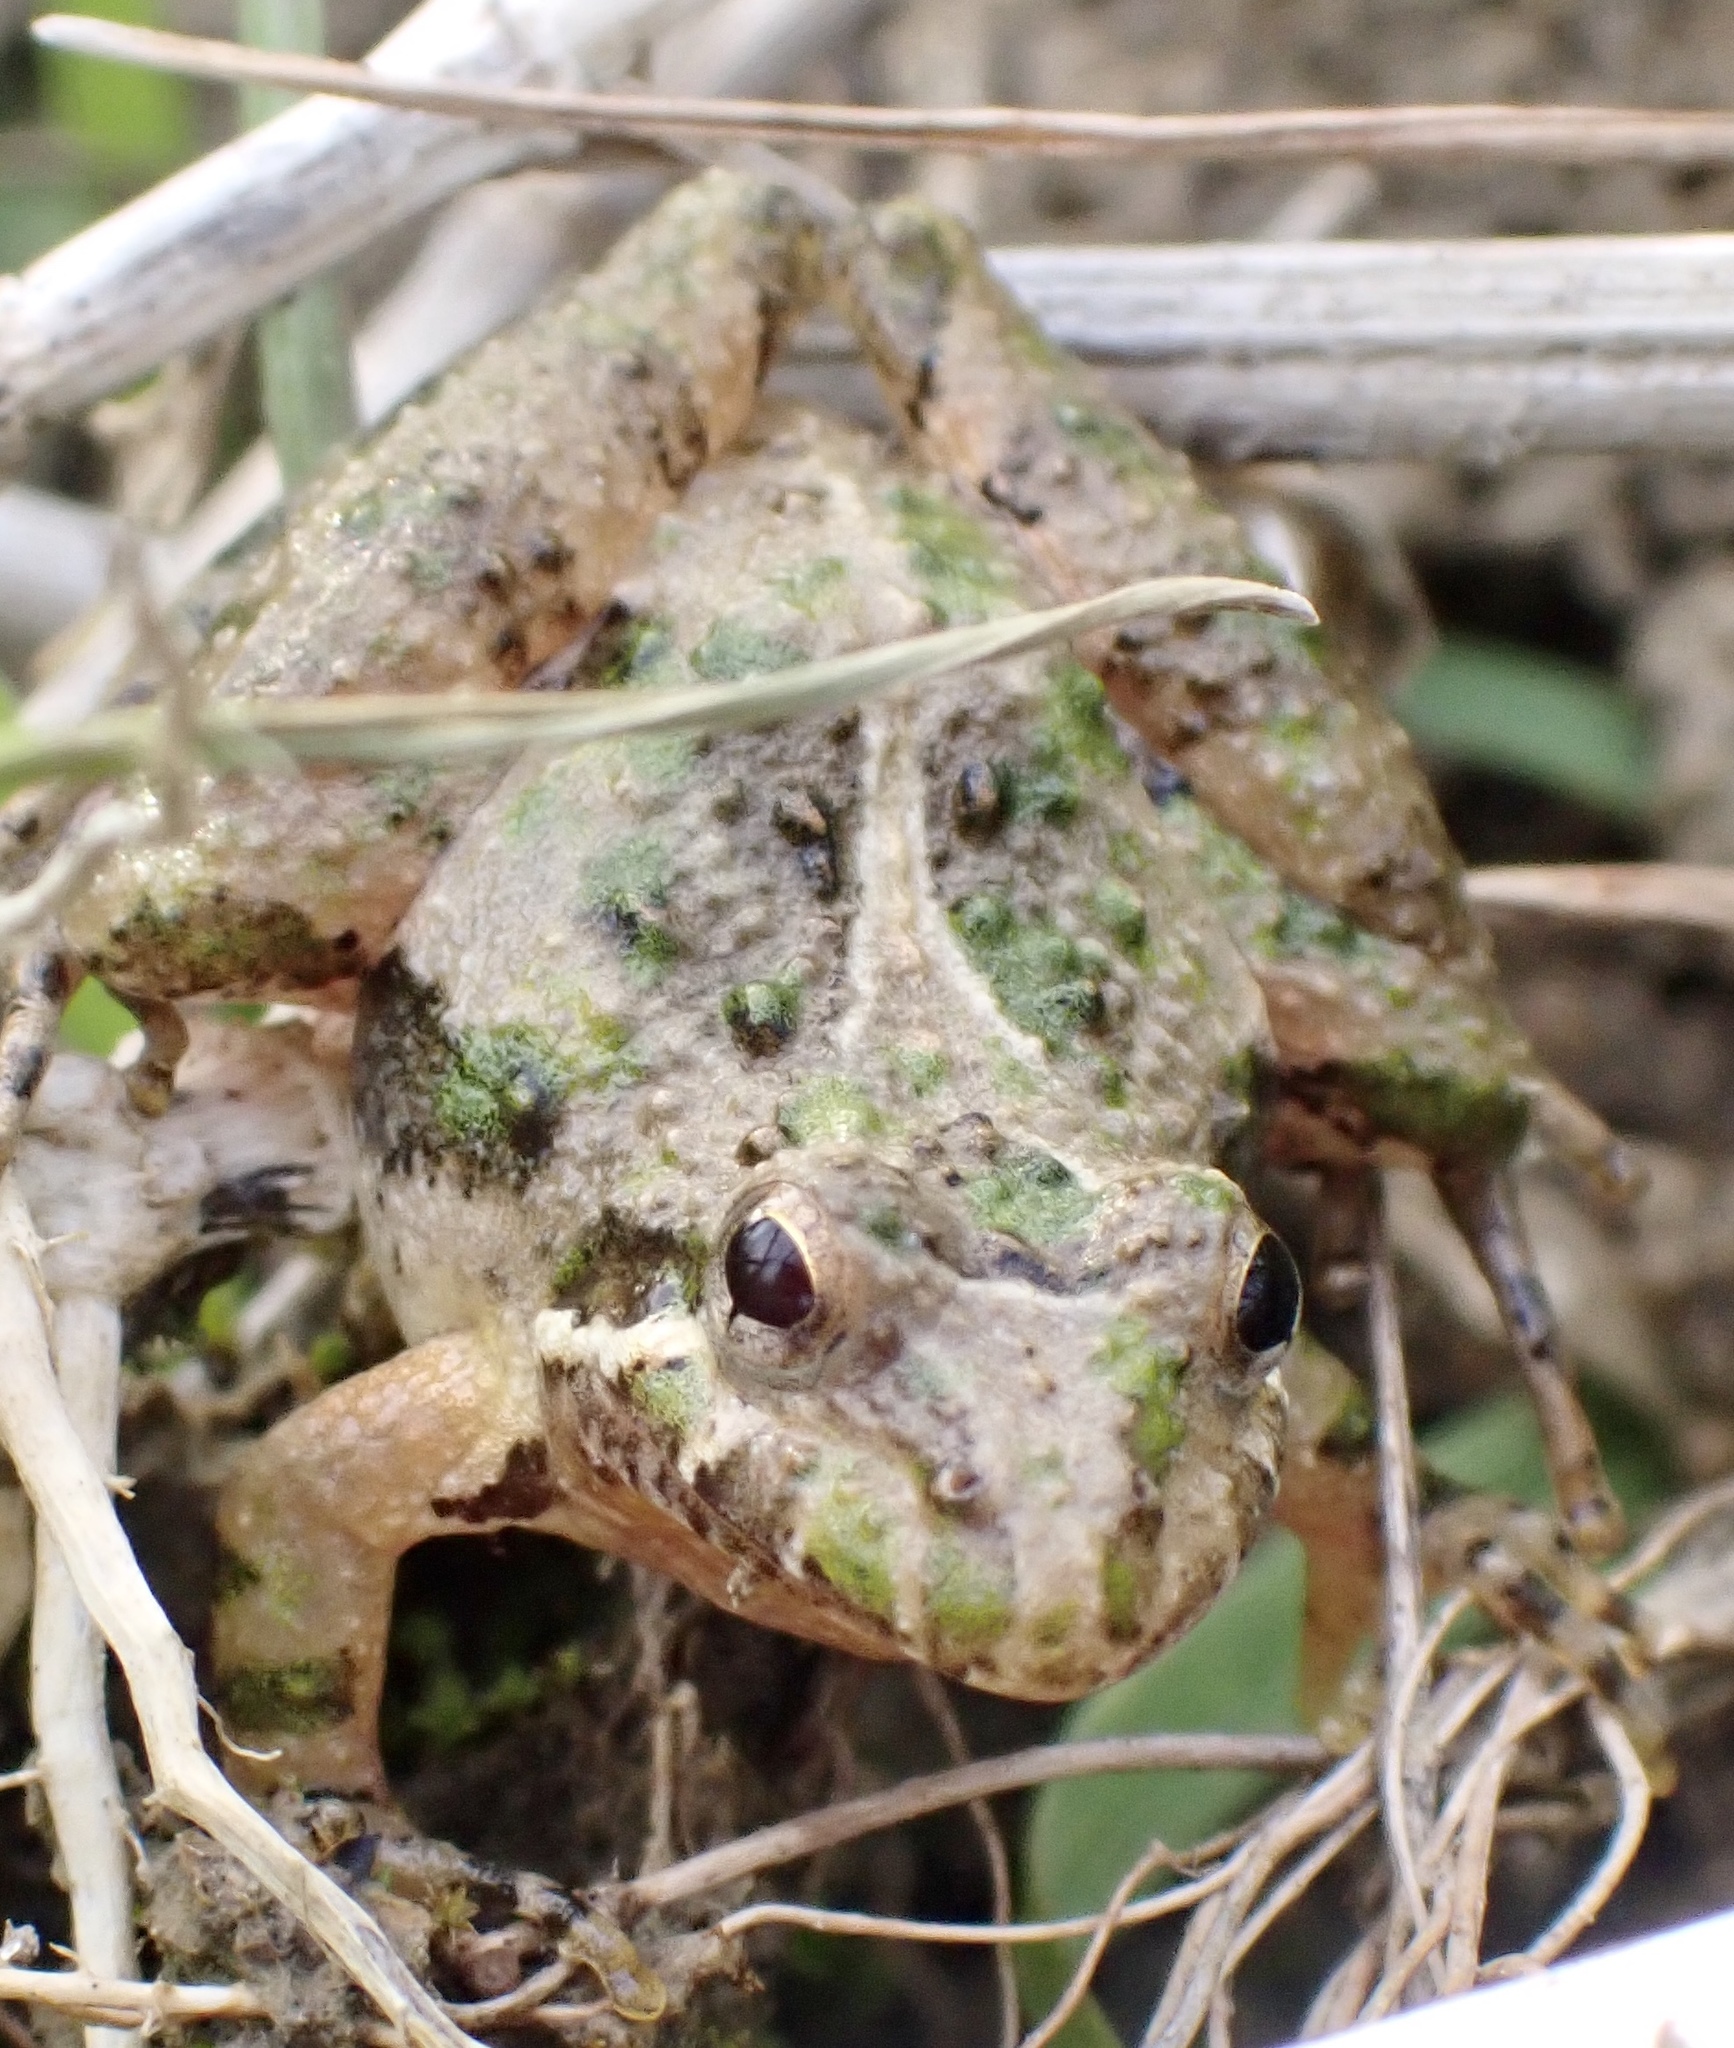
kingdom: Animalia
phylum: Chordata
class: Amphibia
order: Anura
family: Hylidae
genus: Acris
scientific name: Acris gryllus
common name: Southern cricket frog
